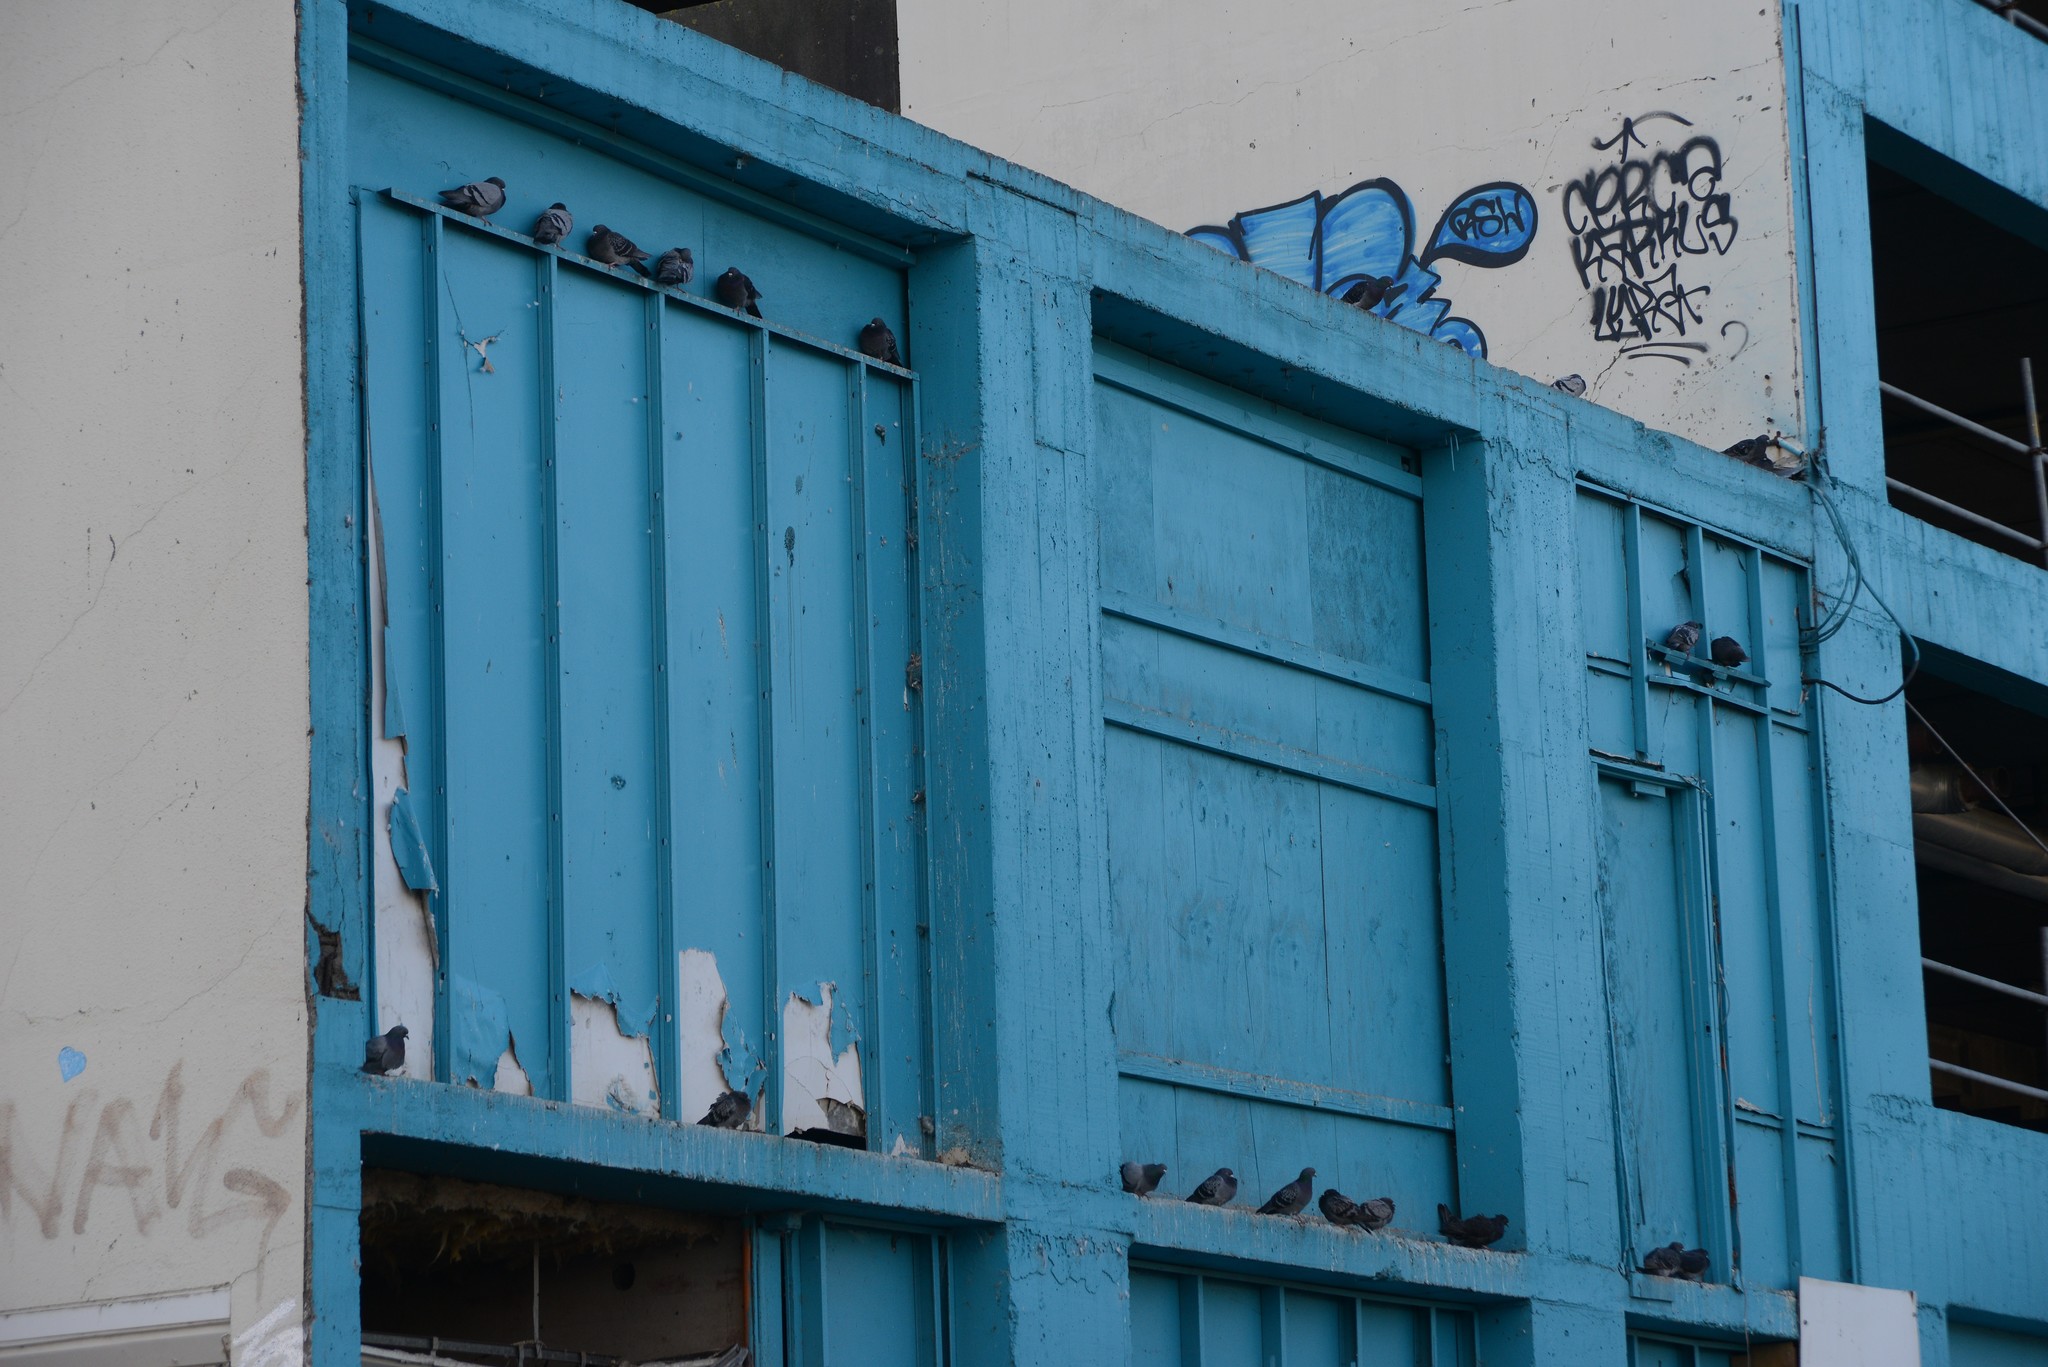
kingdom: Animalia
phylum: Chordata
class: Aves
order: Columbiformes
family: Columbidae
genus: Columba
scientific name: Columba livia
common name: Rock pigeon
